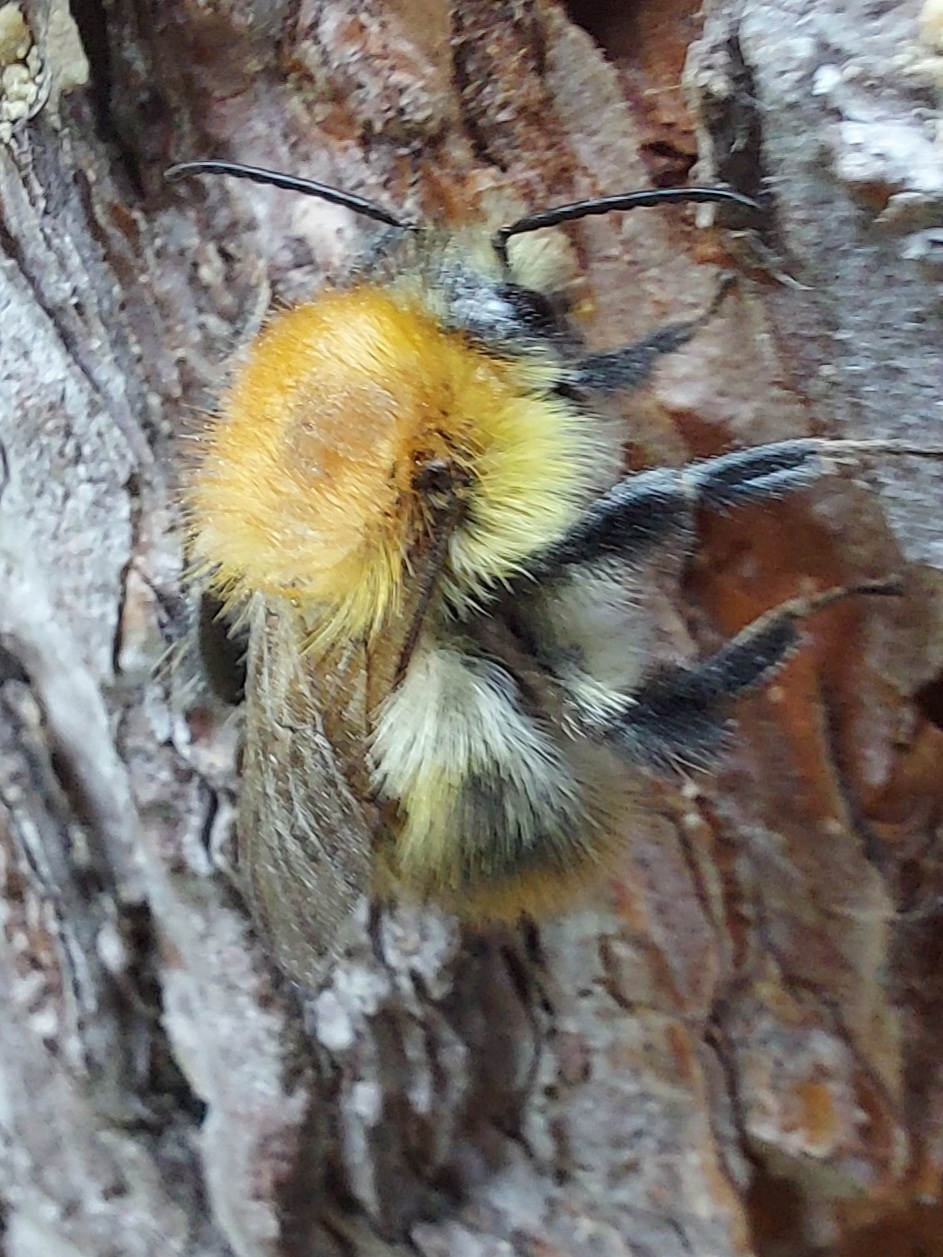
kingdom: Animalia
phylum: Arthropoda
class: Insecta
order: Hymenoptera
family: Apidae
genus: Bombus
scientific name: Bombus pascuorum
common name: Common carder bee
